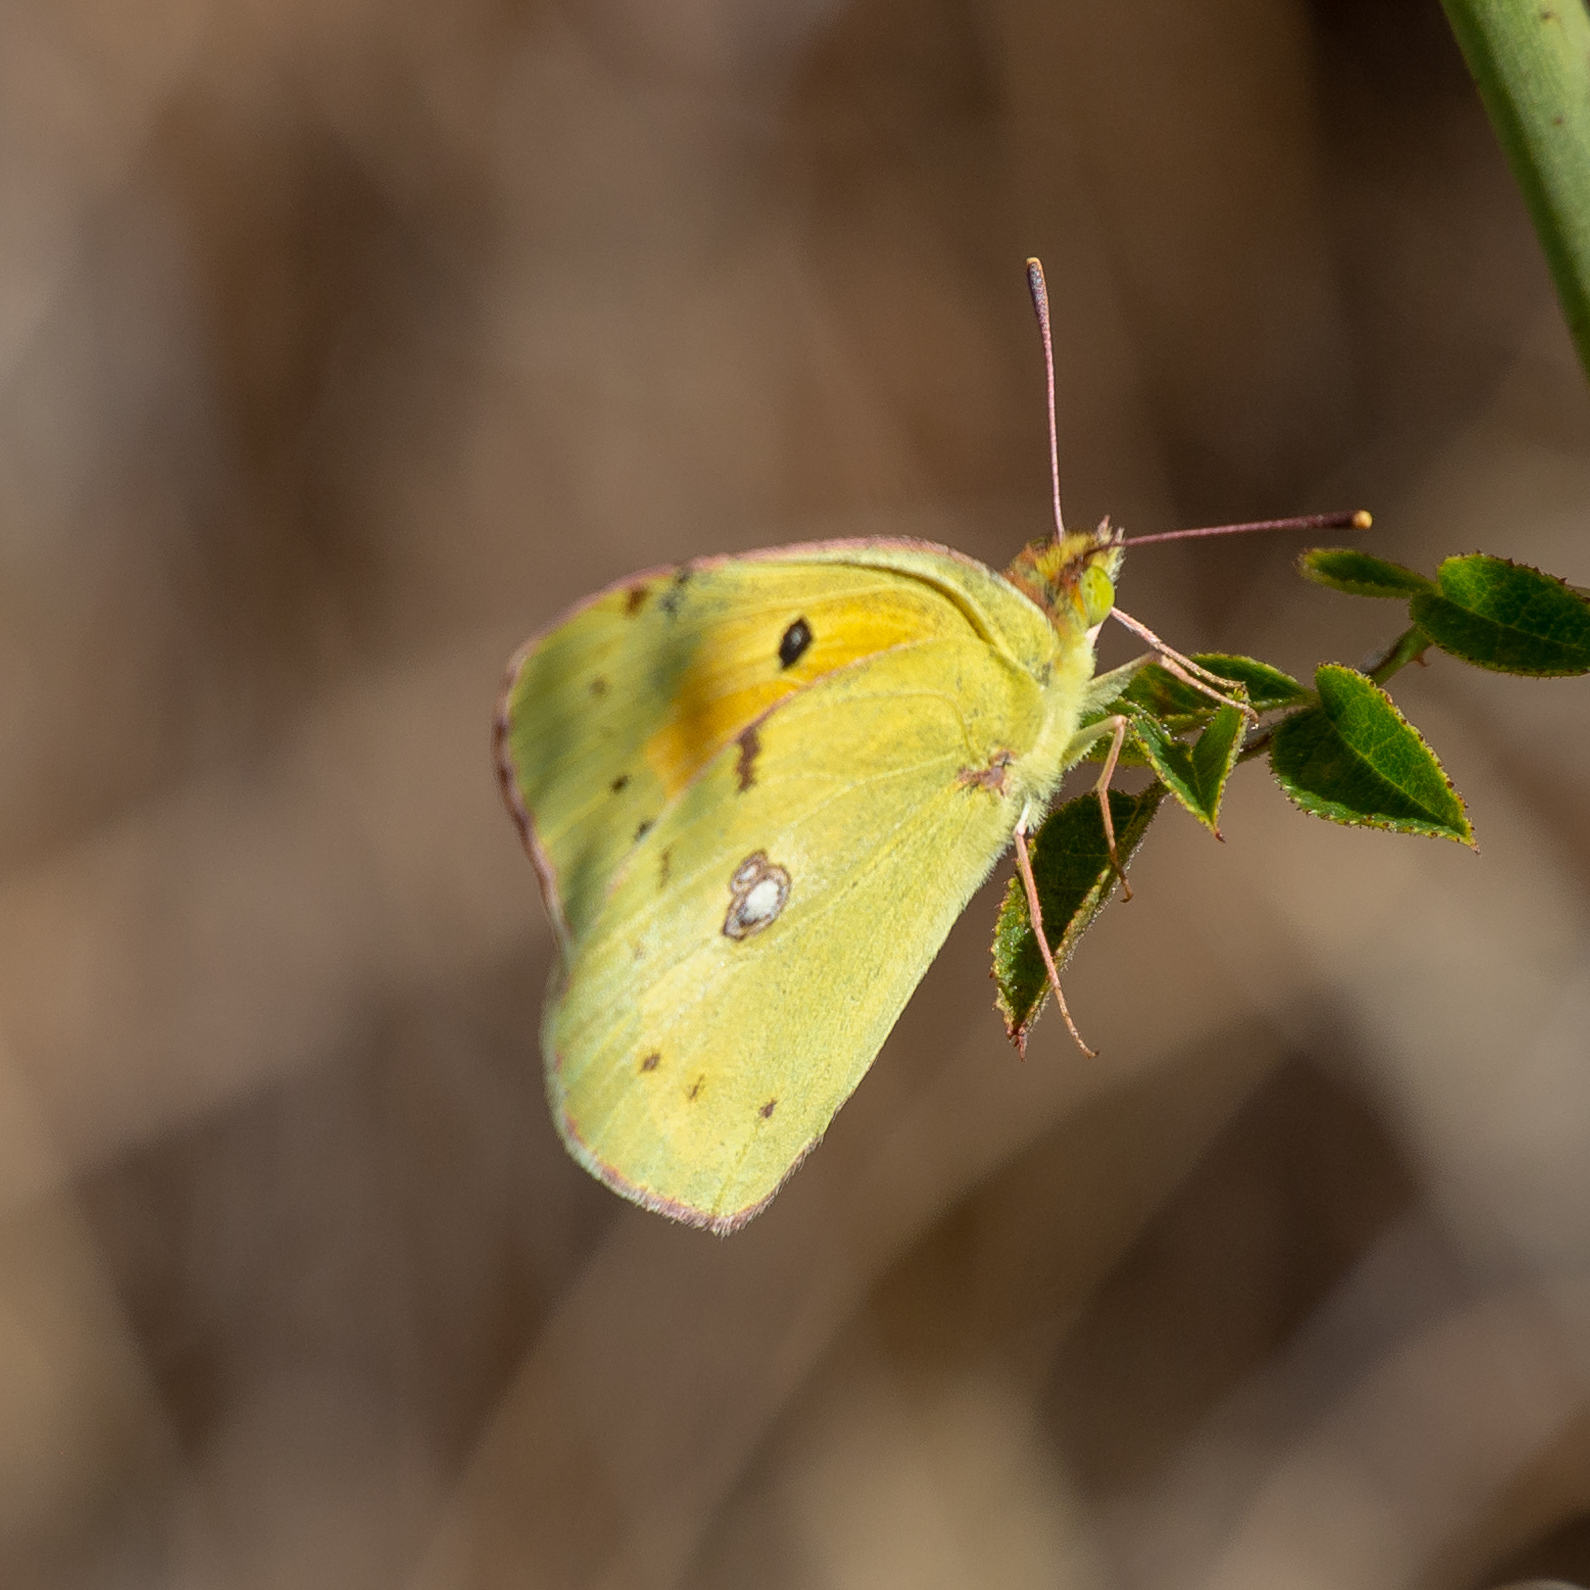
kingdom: Animalia
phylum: Arthropoda
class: Insecta
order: Lepidoptera
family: Pieridae
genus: Colias
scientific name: Colias croceus
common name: Clouded yellow
